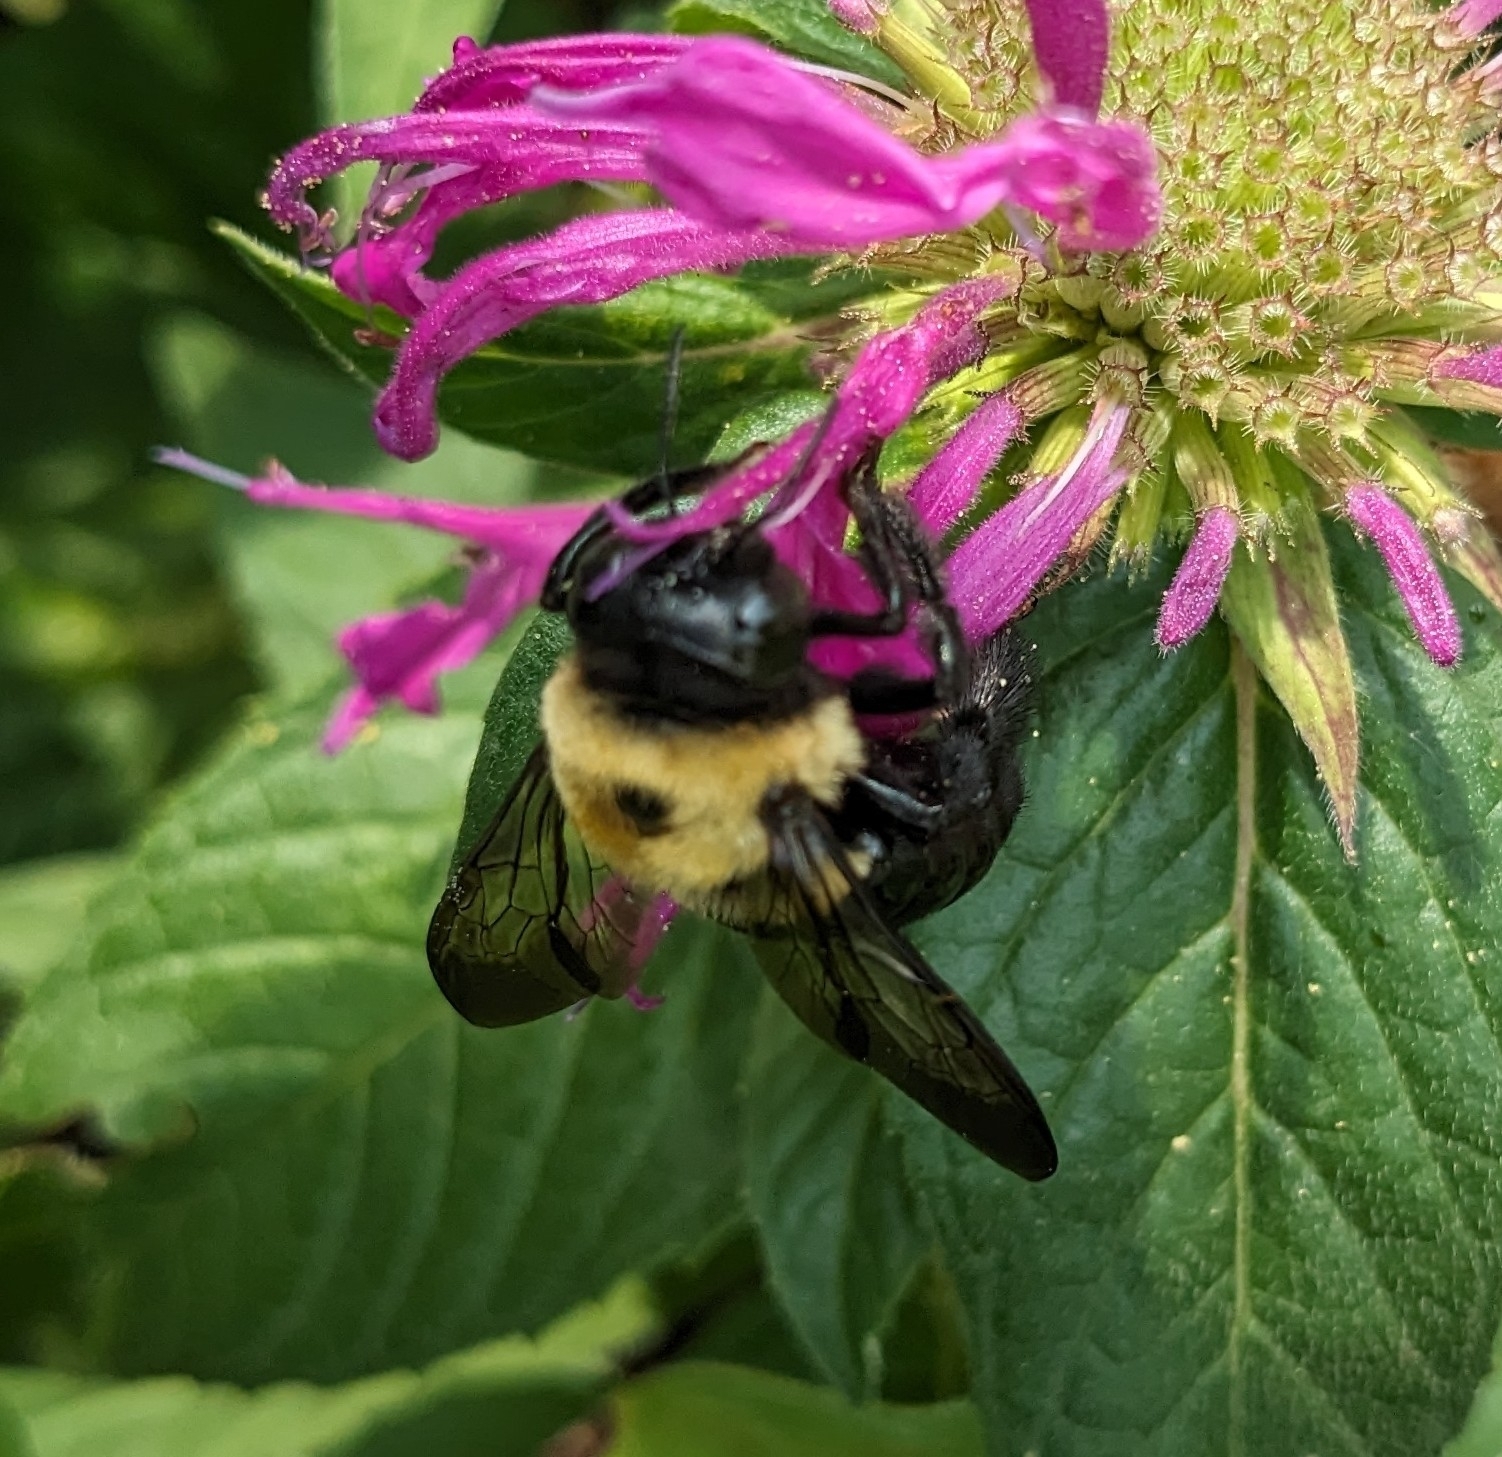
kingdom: Animalia
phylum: Arthropoda
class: Insecta
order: Hymenoptera
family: Apidae
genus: Xylocopa
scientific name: Xylocopa virginica
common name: Carpenter bee
